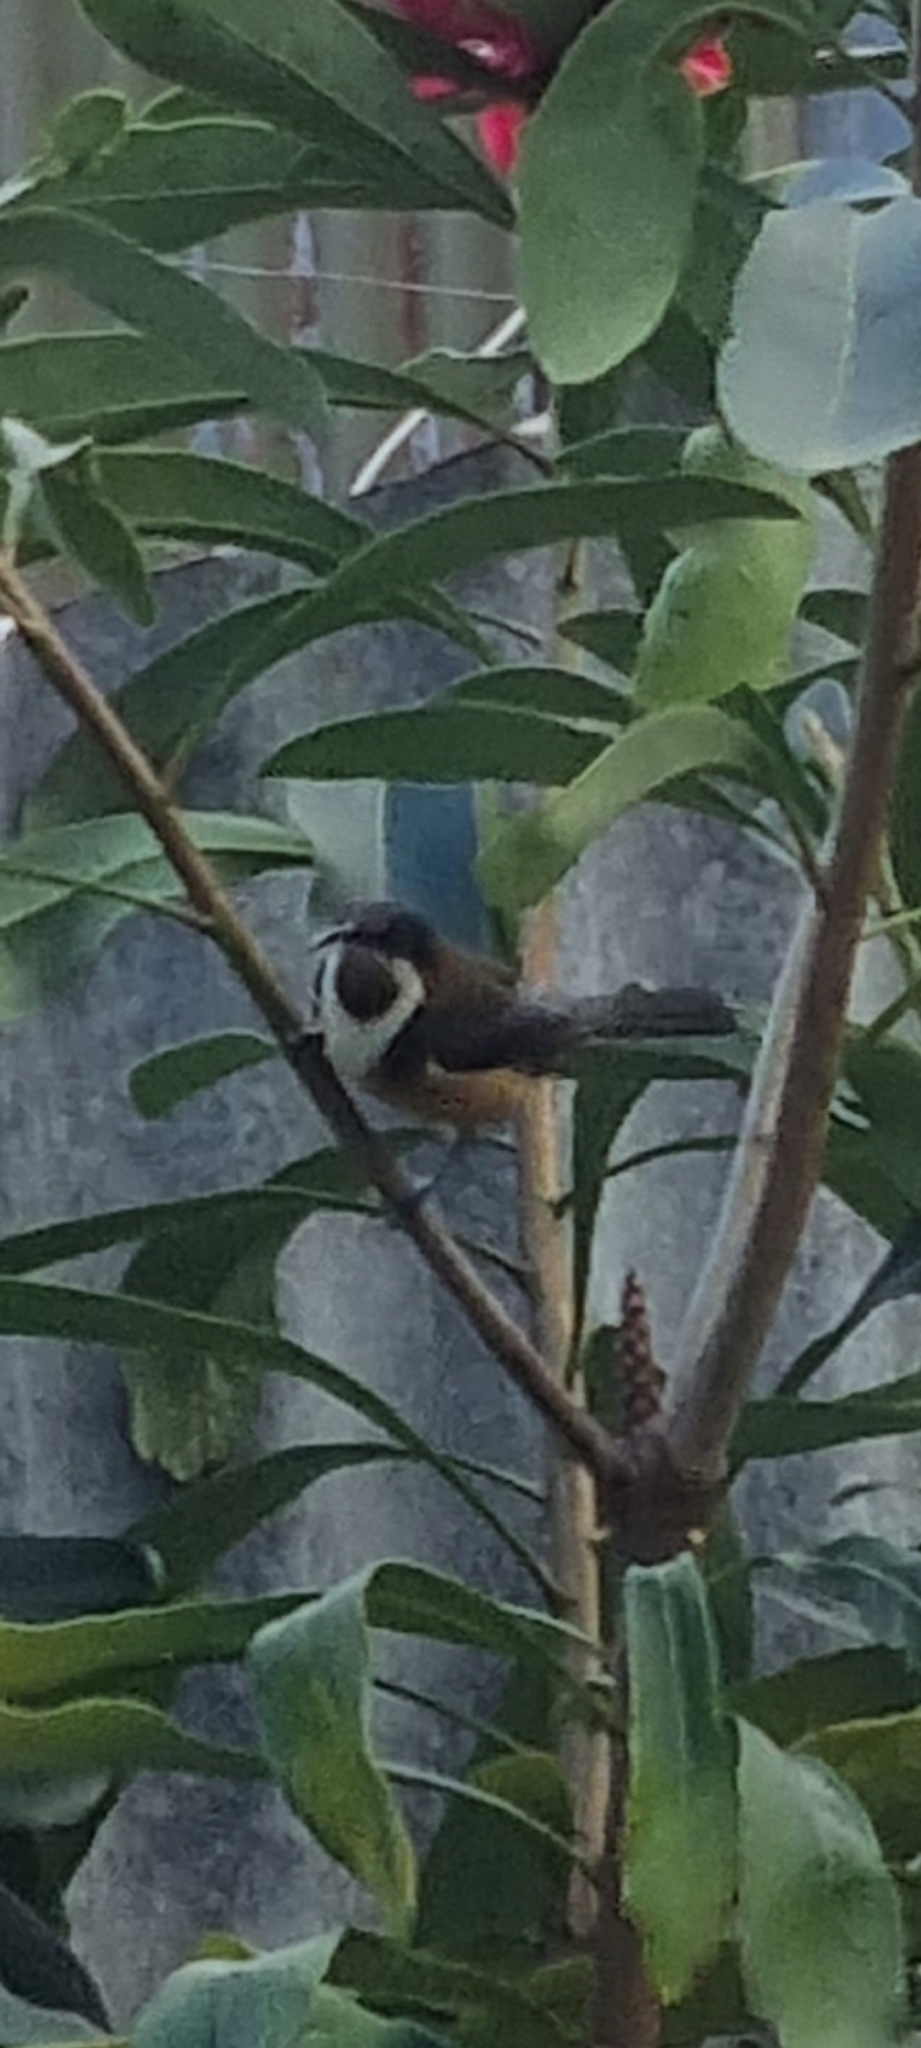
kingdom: Animalia
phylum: Chordata
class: Aves
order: Passeriformes
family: Meliphagidae
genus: Acanthorhynchus
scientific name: Acanthorhynchus tenuirostris
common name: Eastern spinebill
